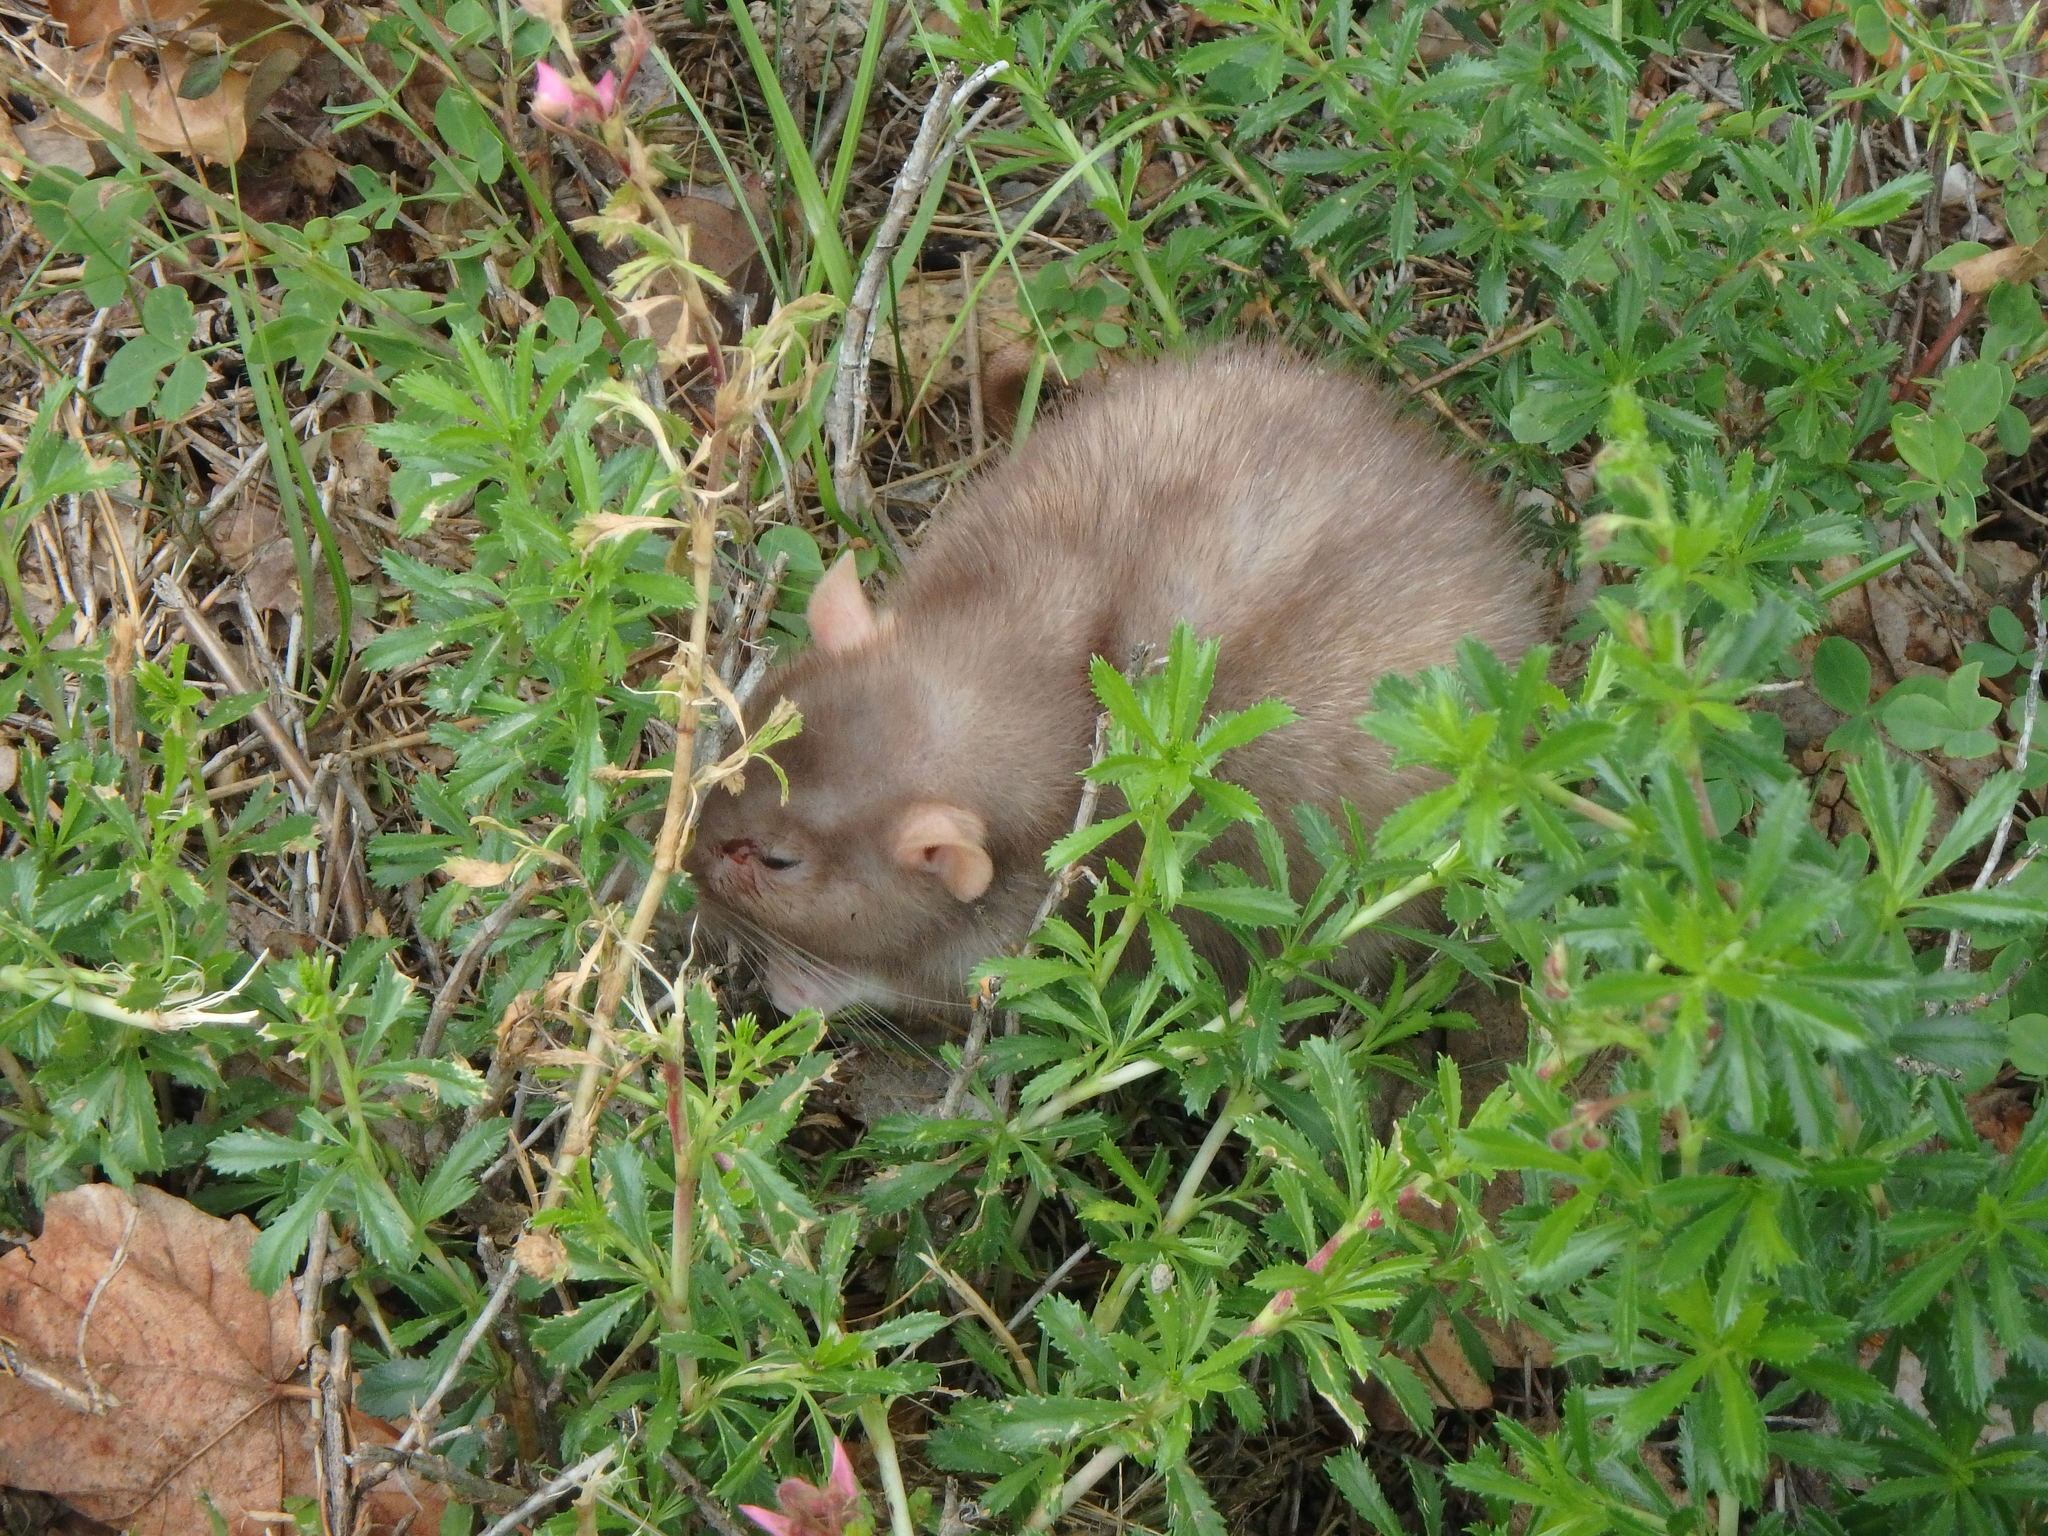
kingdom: Animalia
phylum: Chordata
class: Mammalia
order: Rodentia
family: Muridae
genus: Rattus
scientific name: Rattus norvegicus
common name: Brown rat
